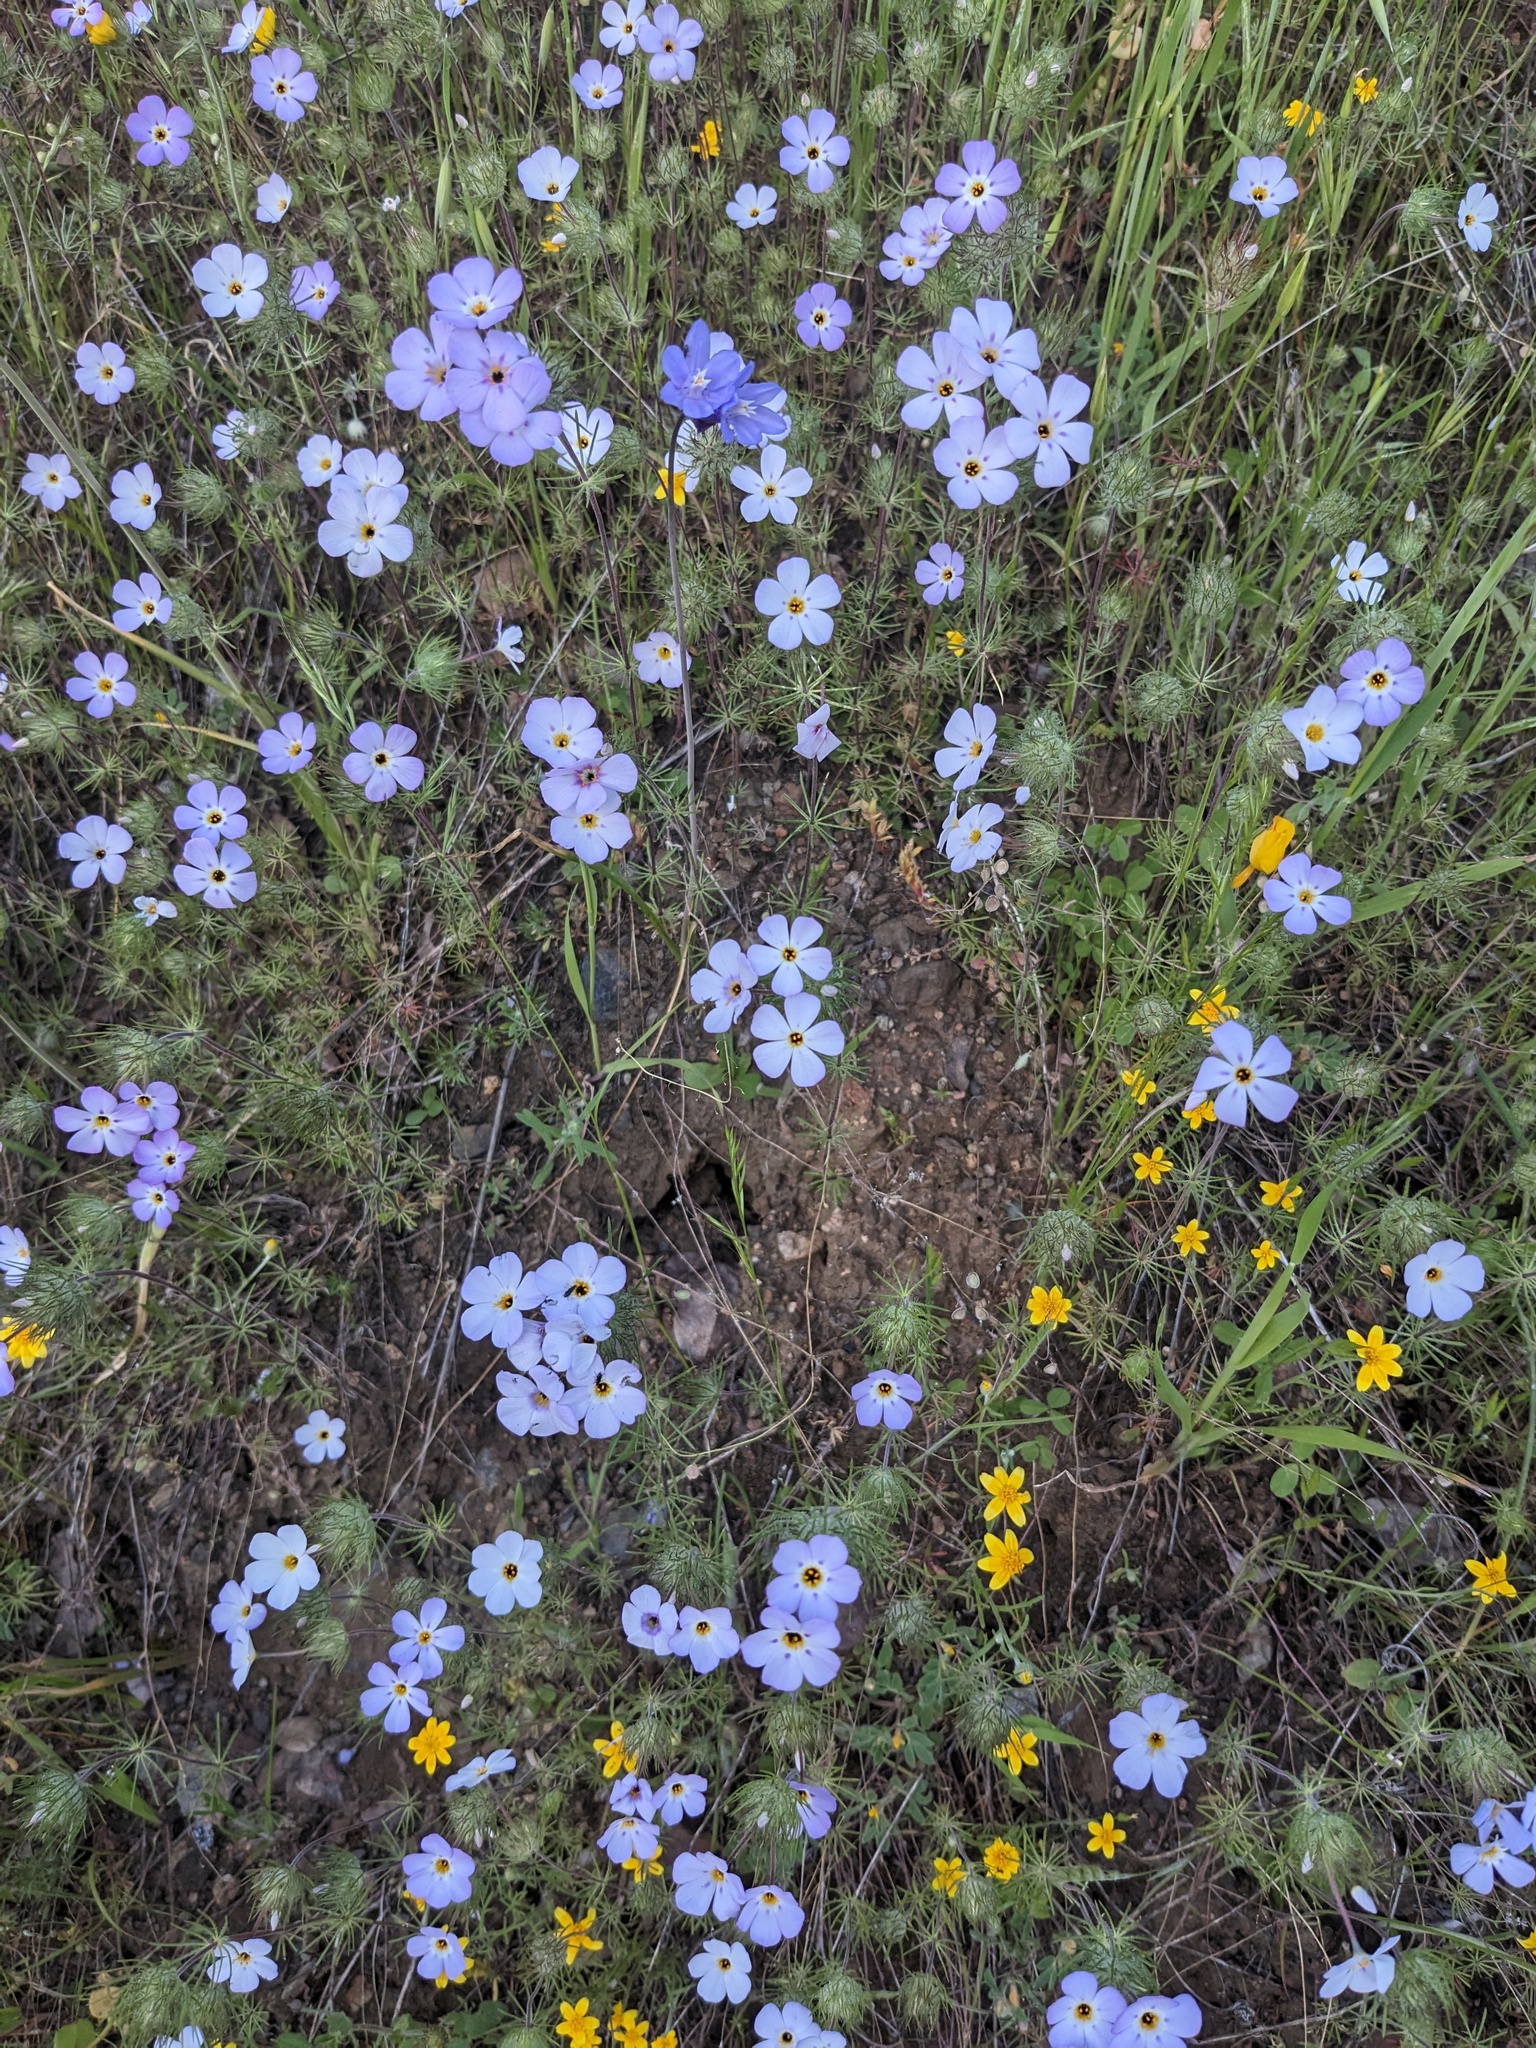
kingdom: Plantae
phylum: Tracheophyta
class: Magnoliopsida
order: Ericales
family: Polemoniaceae
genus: Leptosiphon
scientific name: Leptosiphon montanus
